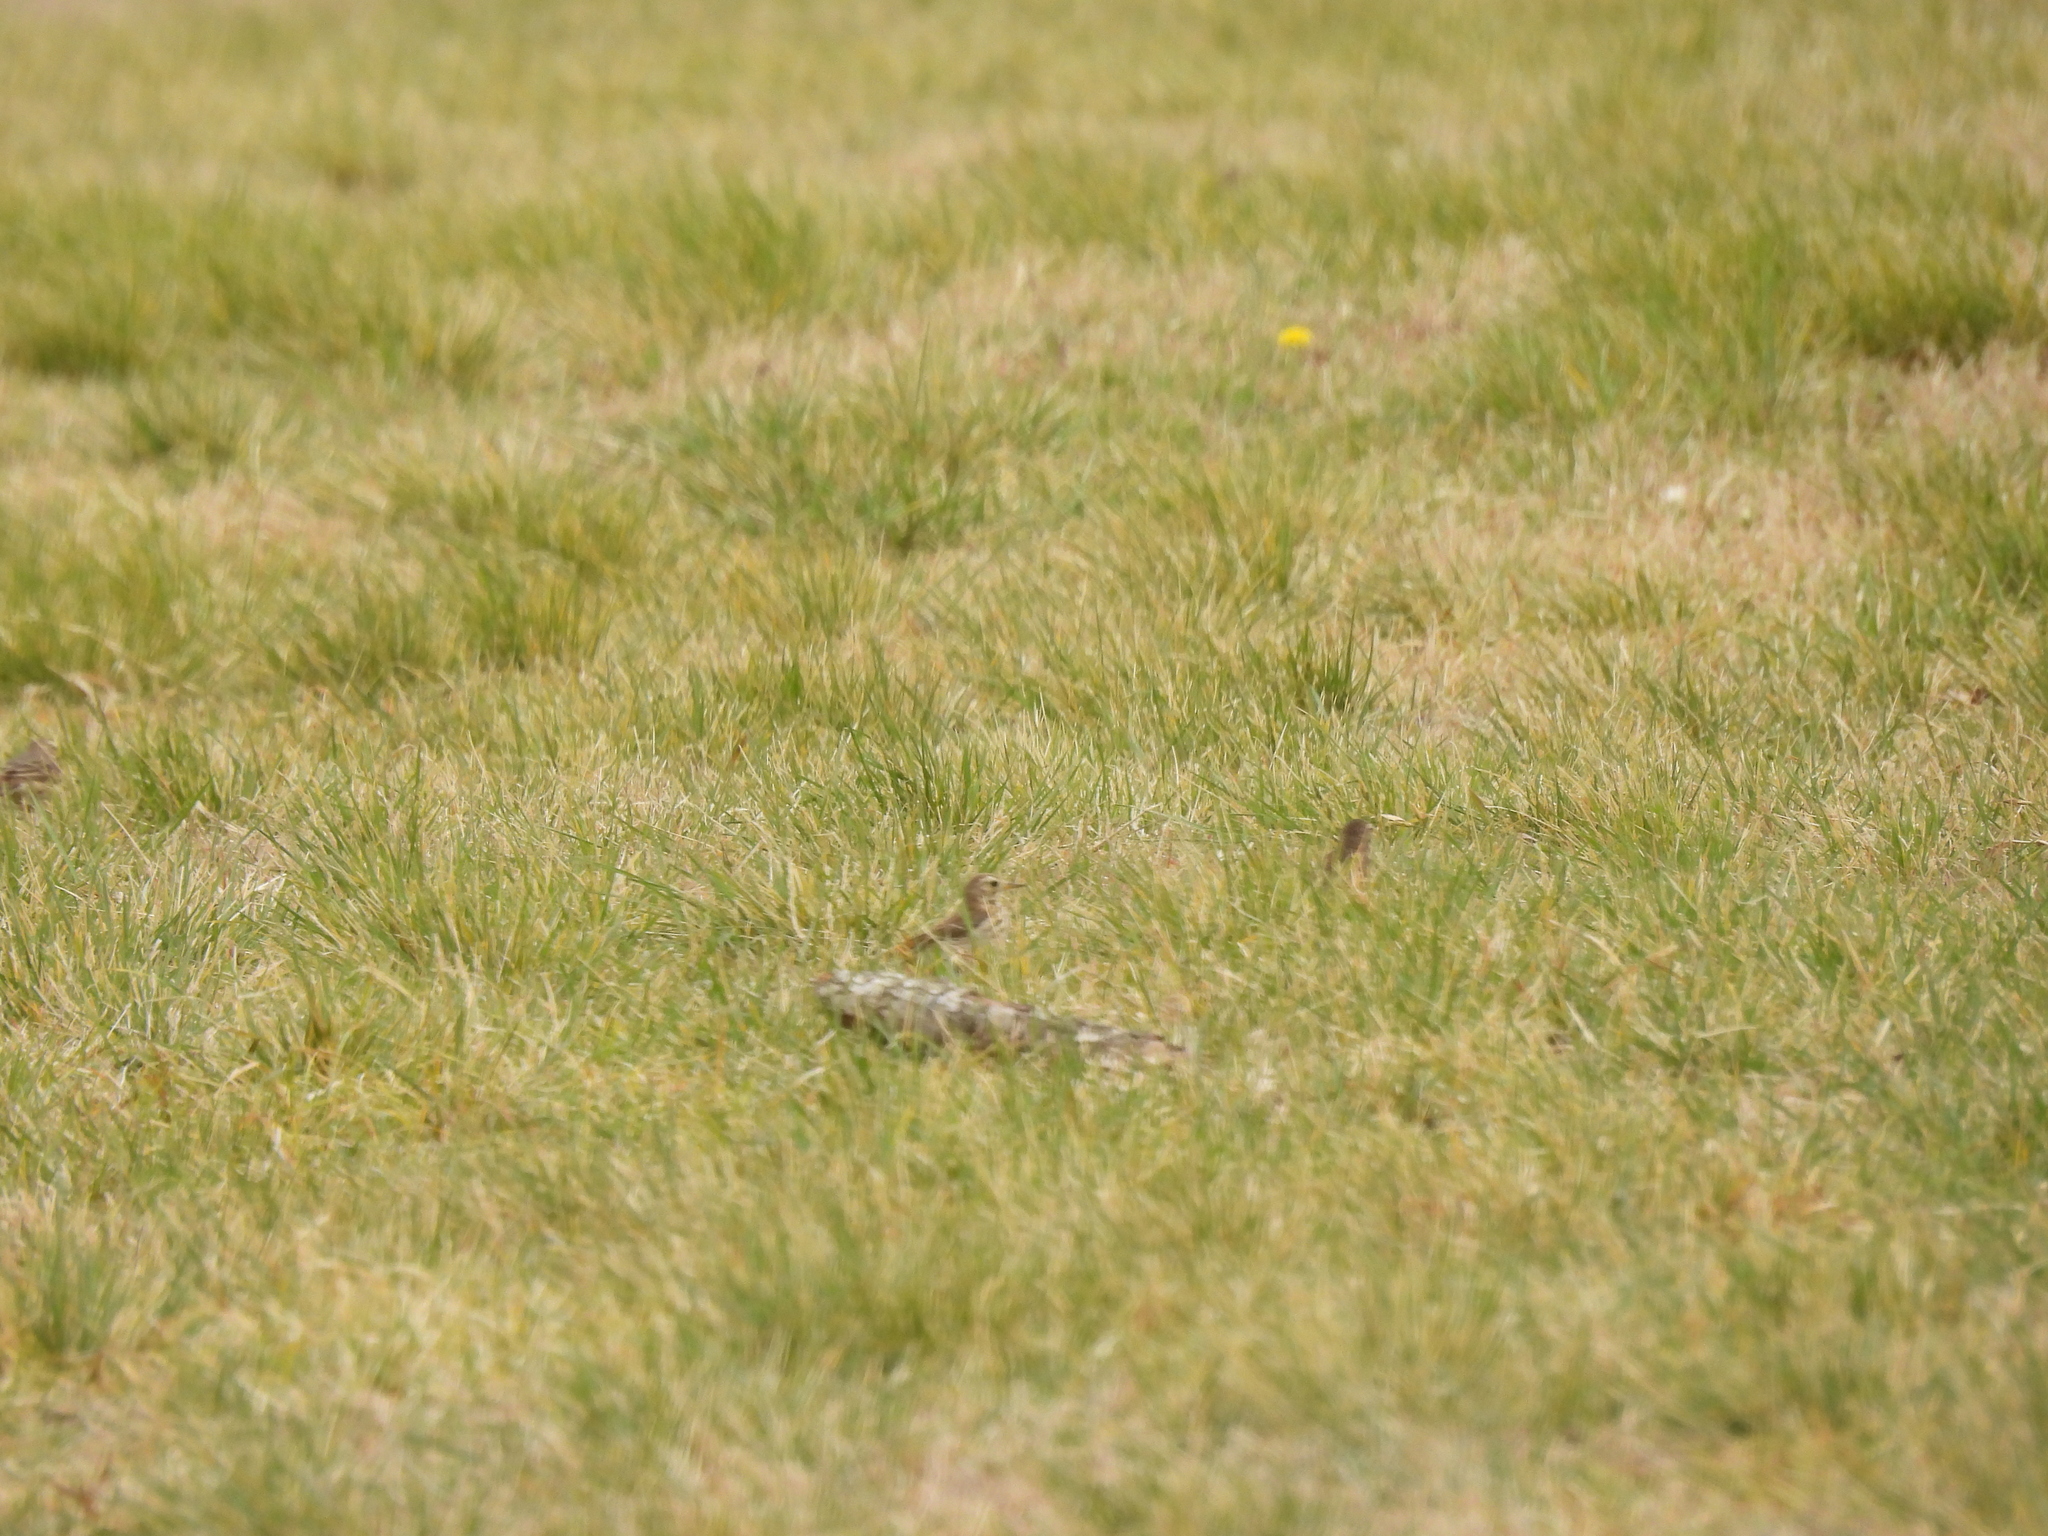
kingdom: Animalia
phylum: Chordata
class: Aves
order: Passeriformes
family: Motacillidae
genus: Anthus
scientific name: Anthus rubescens
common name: Buff-bellied pipit
